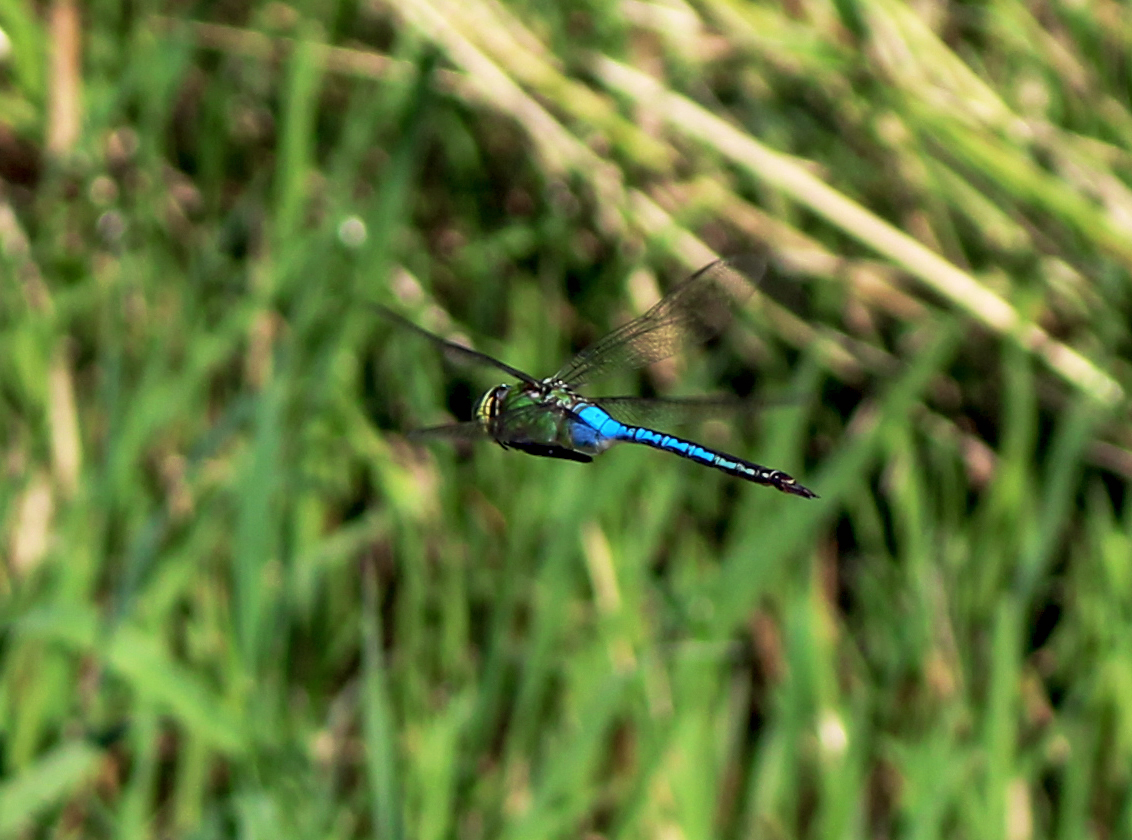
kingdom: Animalia
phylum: Arthropoda
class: Insecta
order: Odonata
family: Aeshnidae
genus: Anax
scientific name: Anax junius
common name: Common green darner
